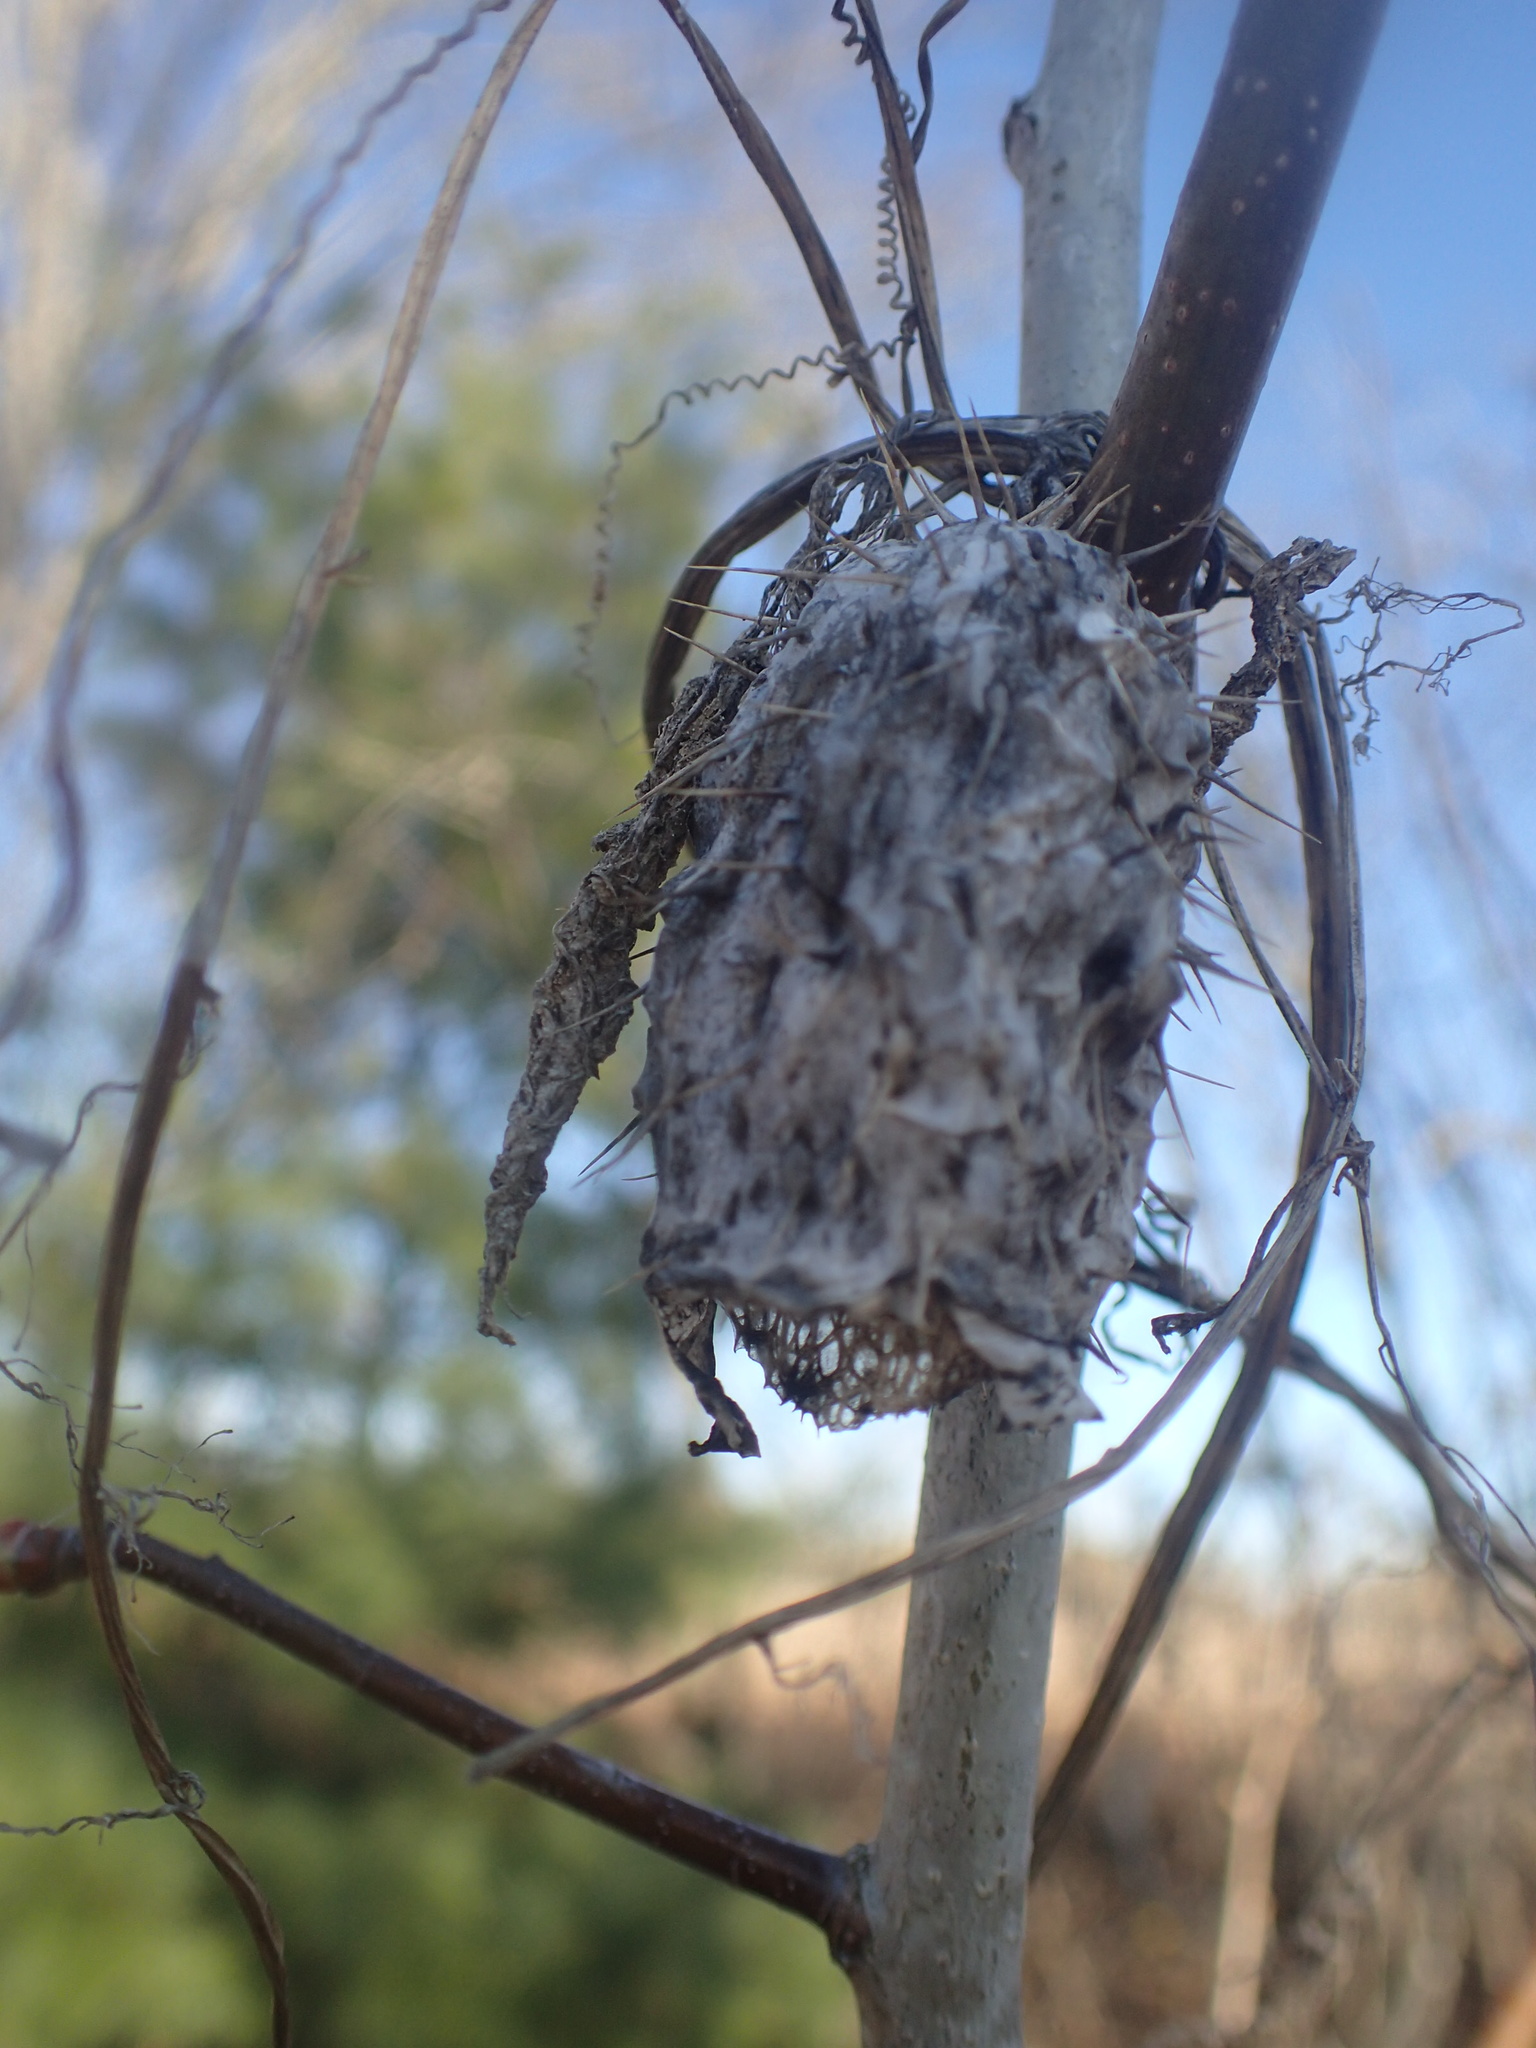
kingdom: Plantae
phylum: Tracheophyta
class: Magnoliopsida
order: Cucurbitales
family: Cucurbitaceae
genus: Echinocystis
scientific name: Echinocystis lobata
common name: Wild cucumber
